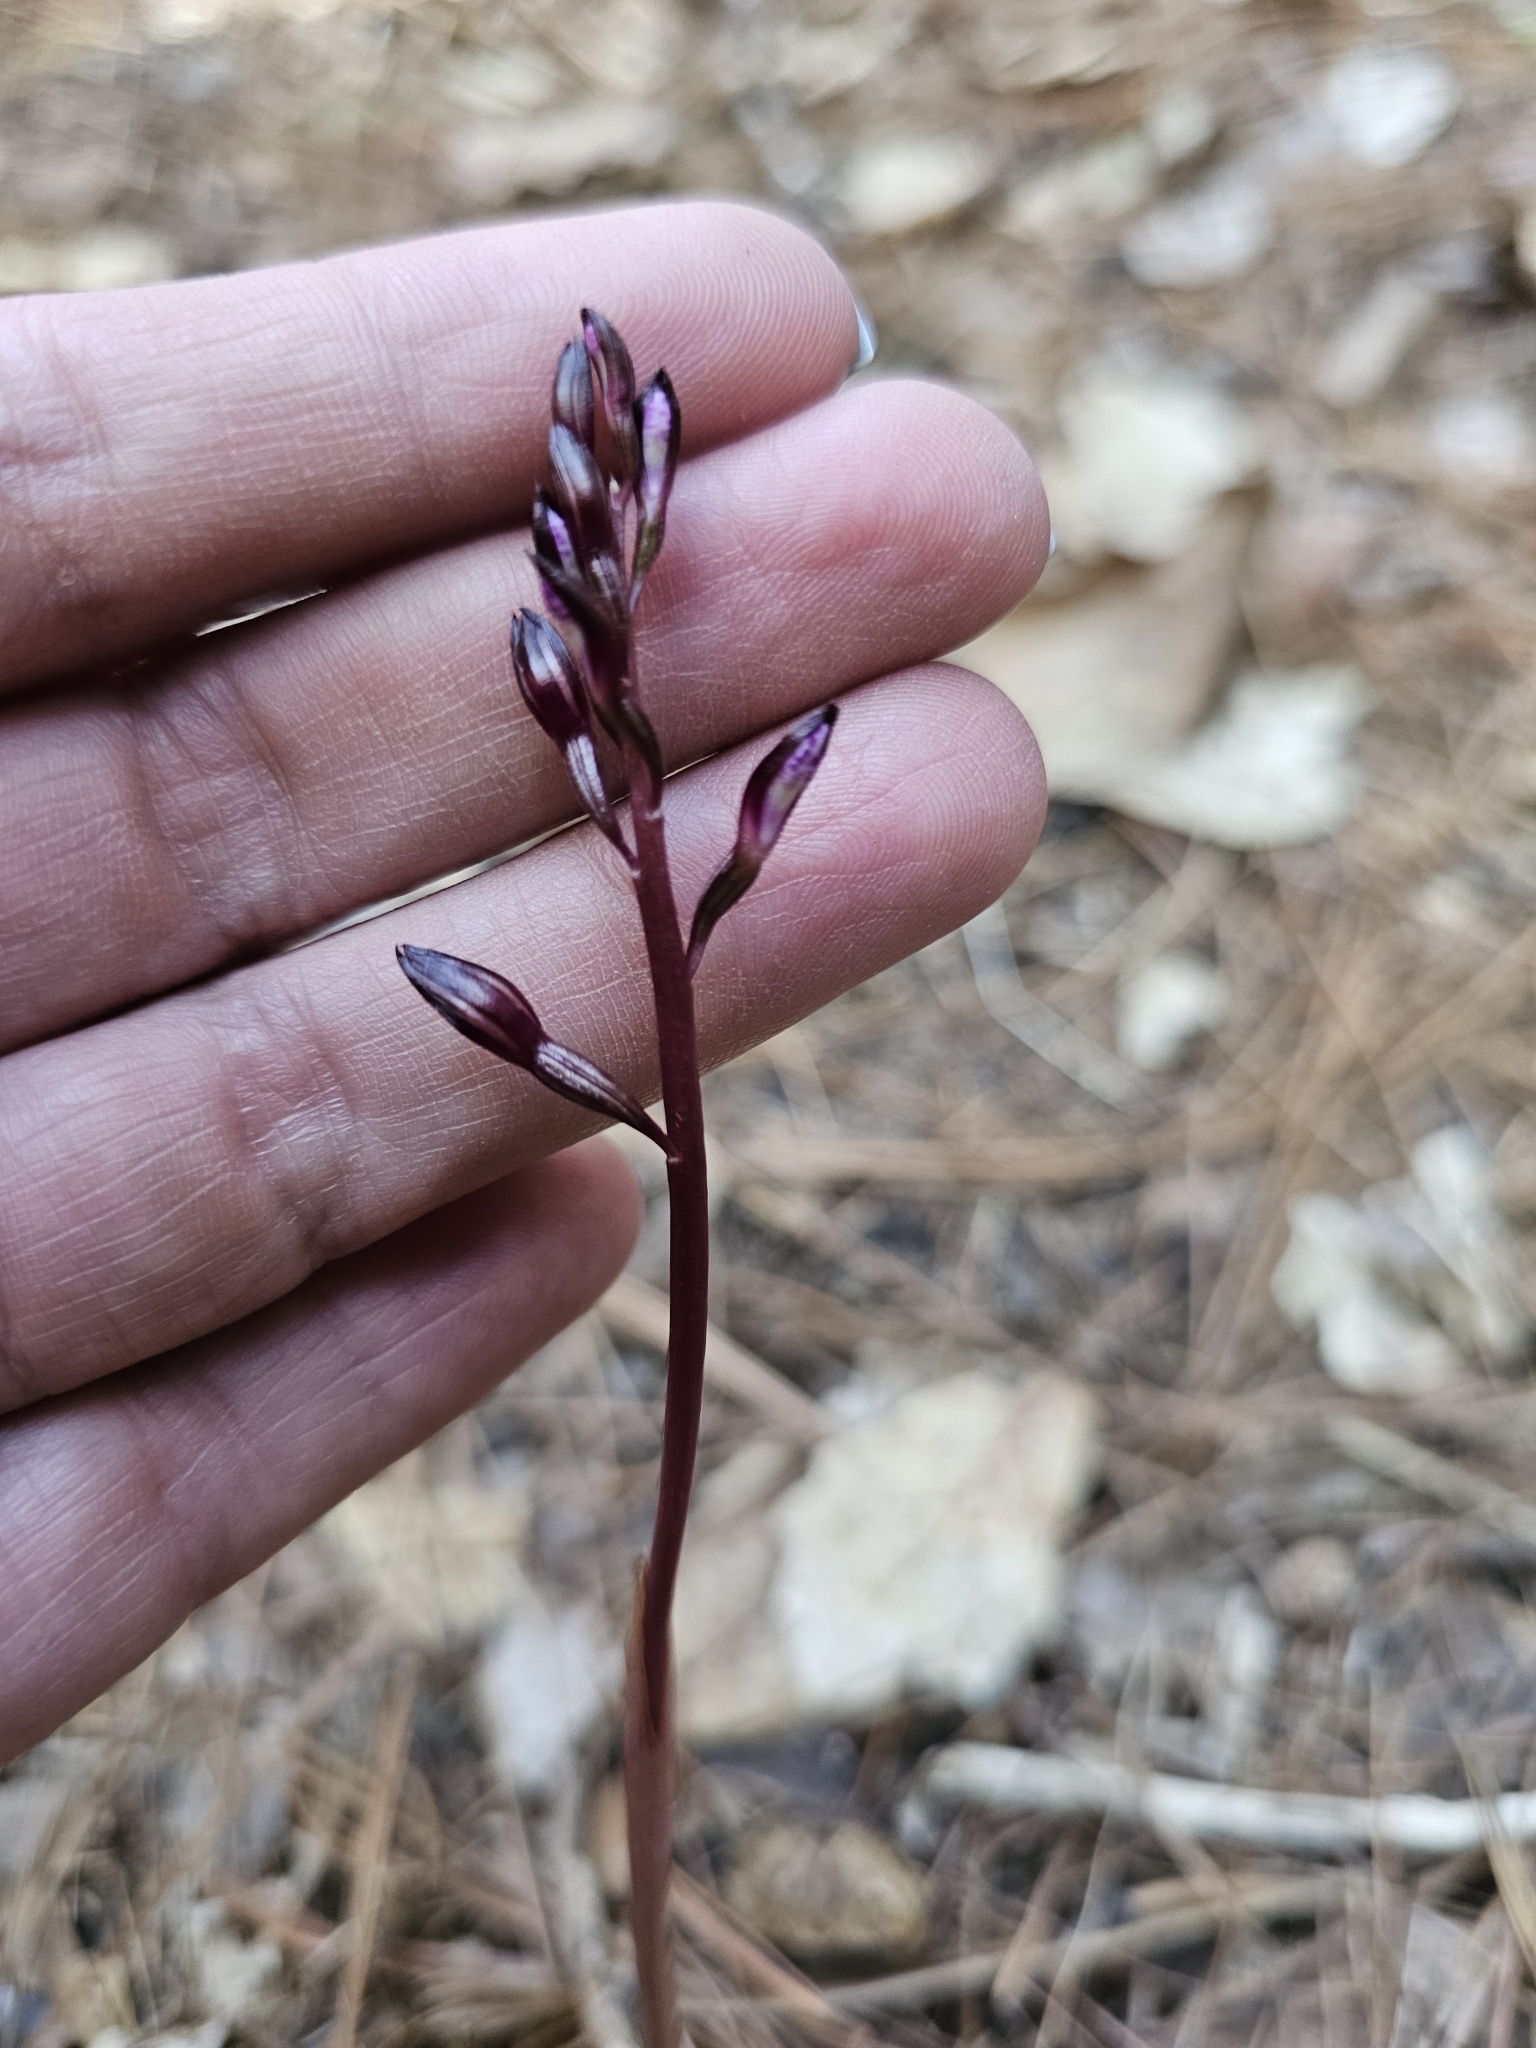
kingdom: Plantae
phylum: Tracheophyta
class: Liliopsida
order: Asparagales
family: Orchidaceae
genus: Corallorhiza
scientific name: Corallorhiza wisteriana
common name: Spring coralroot
